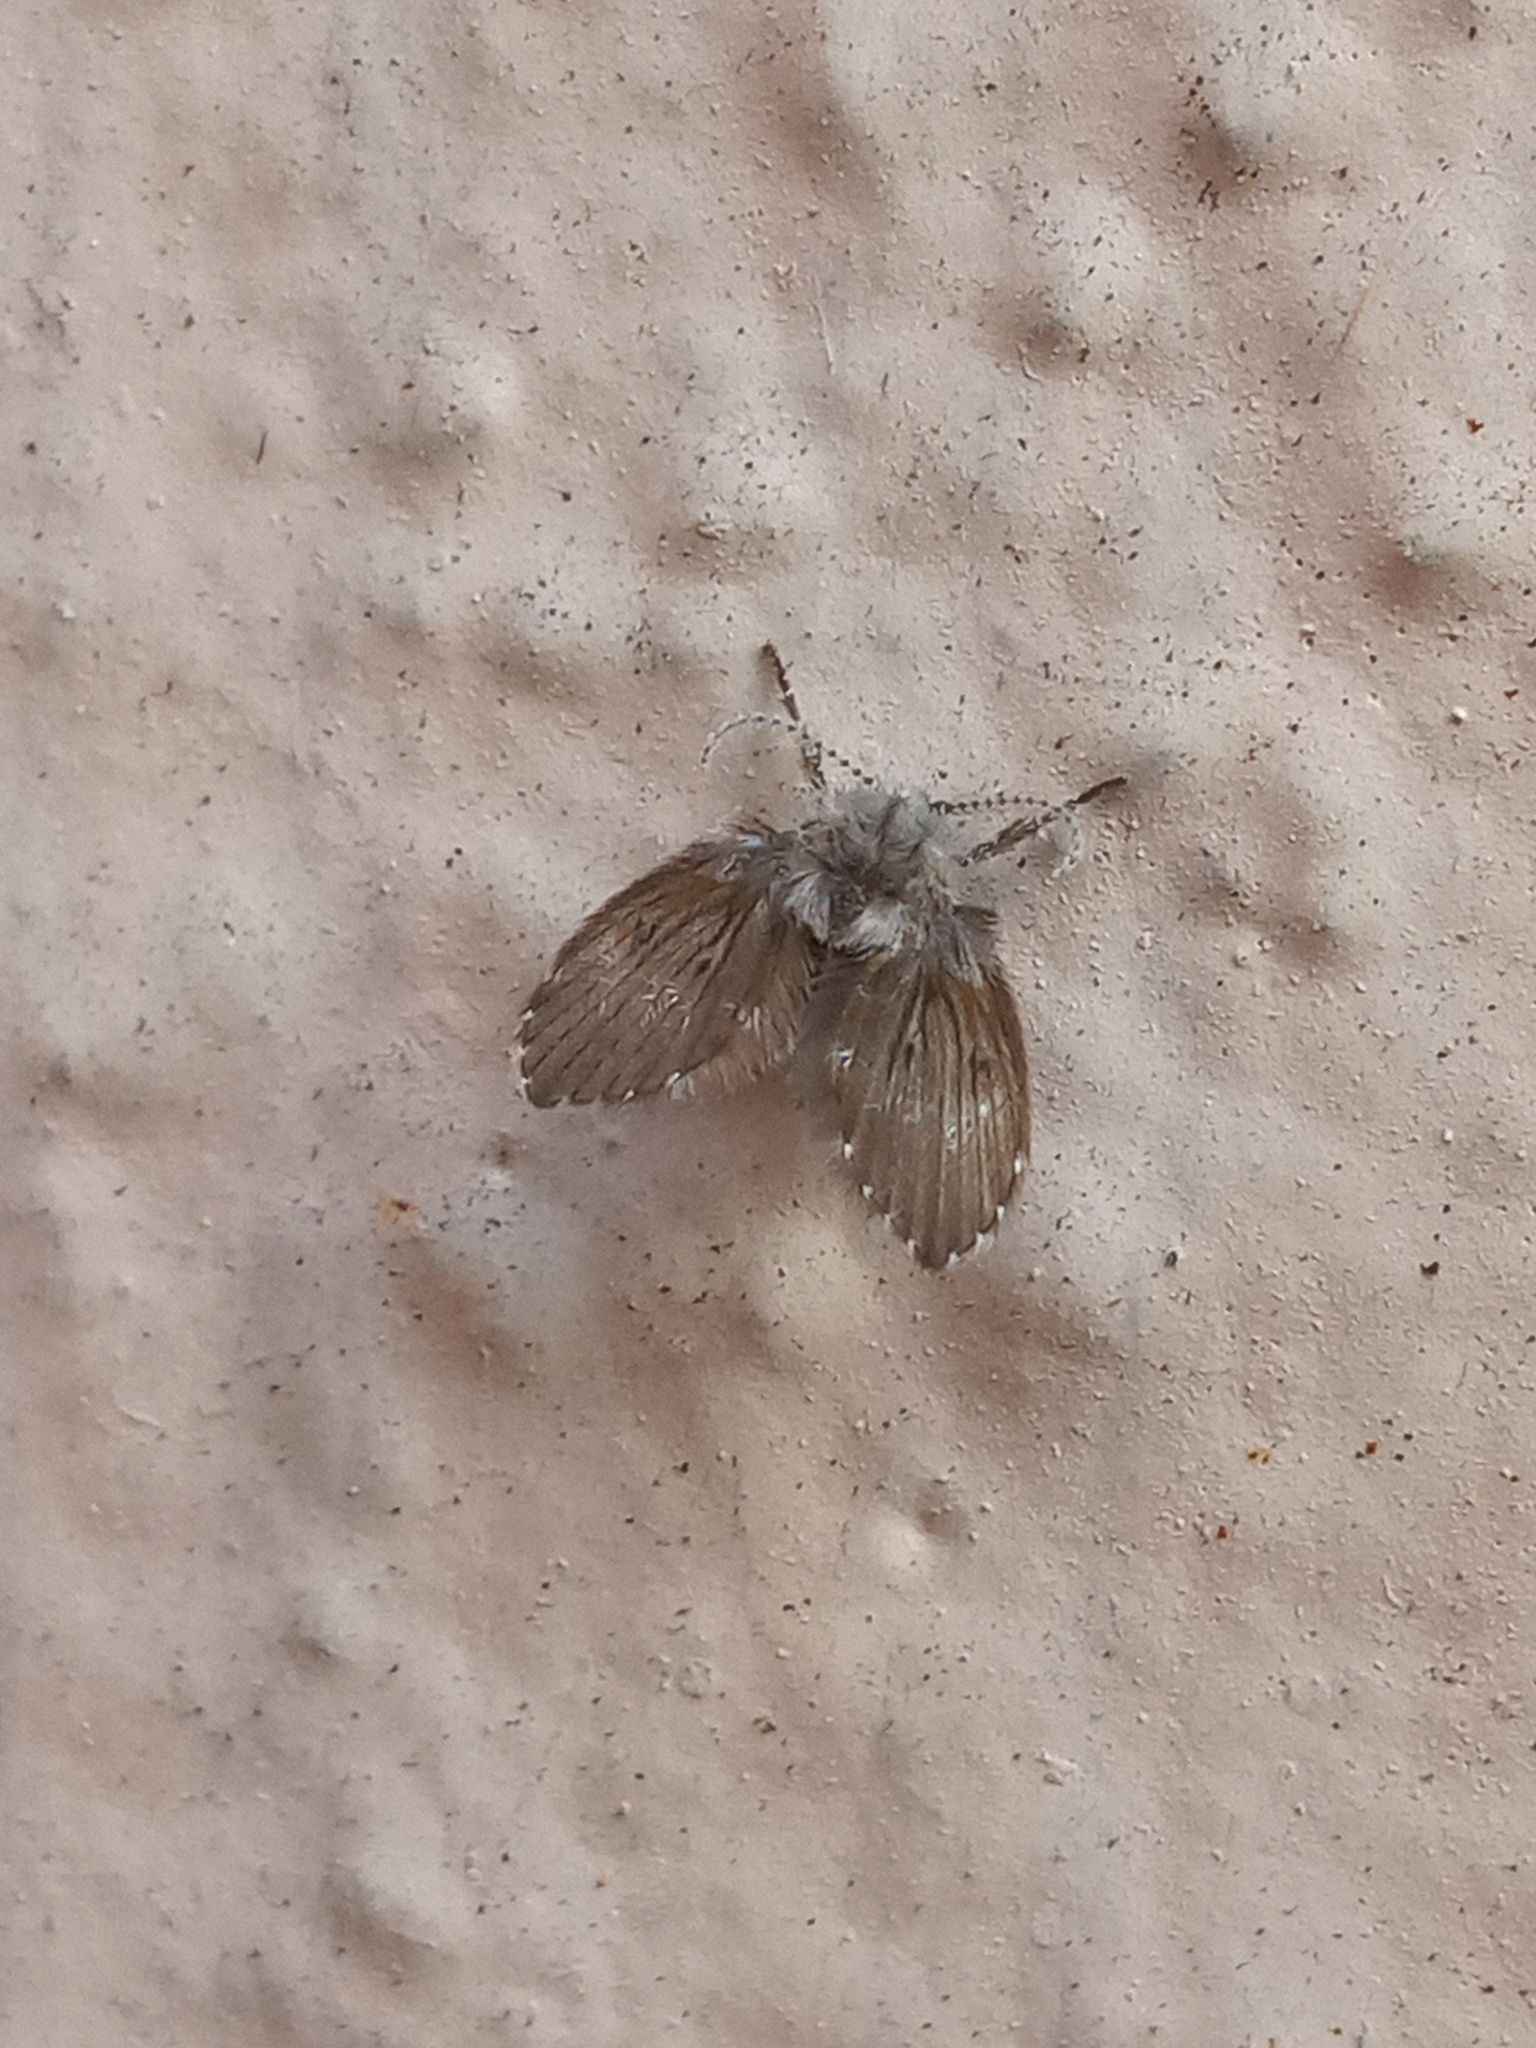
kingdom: Animalia
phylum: Arthropoda
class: Insecta
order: Diptera
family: Psychodidae
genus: Clogmia
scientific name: Clogmia albipunctatus
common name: White-spotted moth fly
